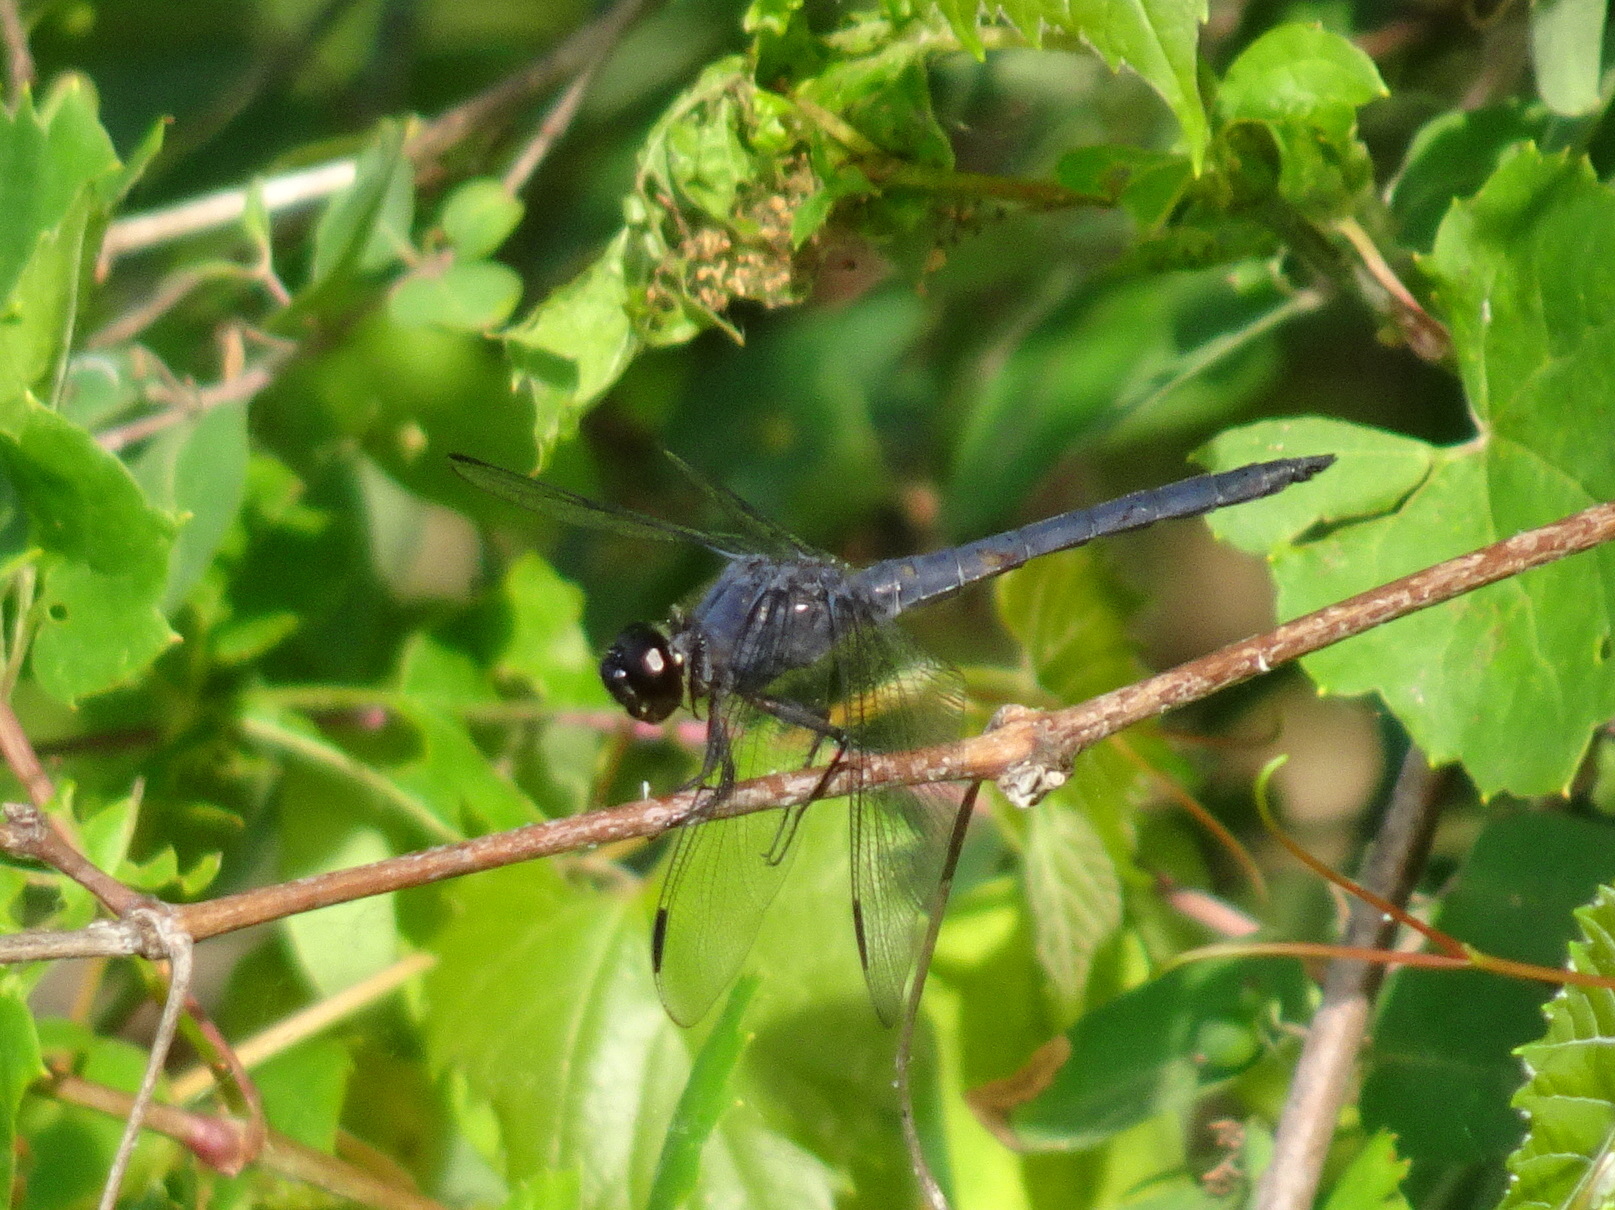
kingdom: Animalia
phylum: Arthropoda
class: Insecta
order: Odonata
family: Libellulidae
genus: Libellula
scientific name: Libellula incesta
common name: Slaty skimmer
